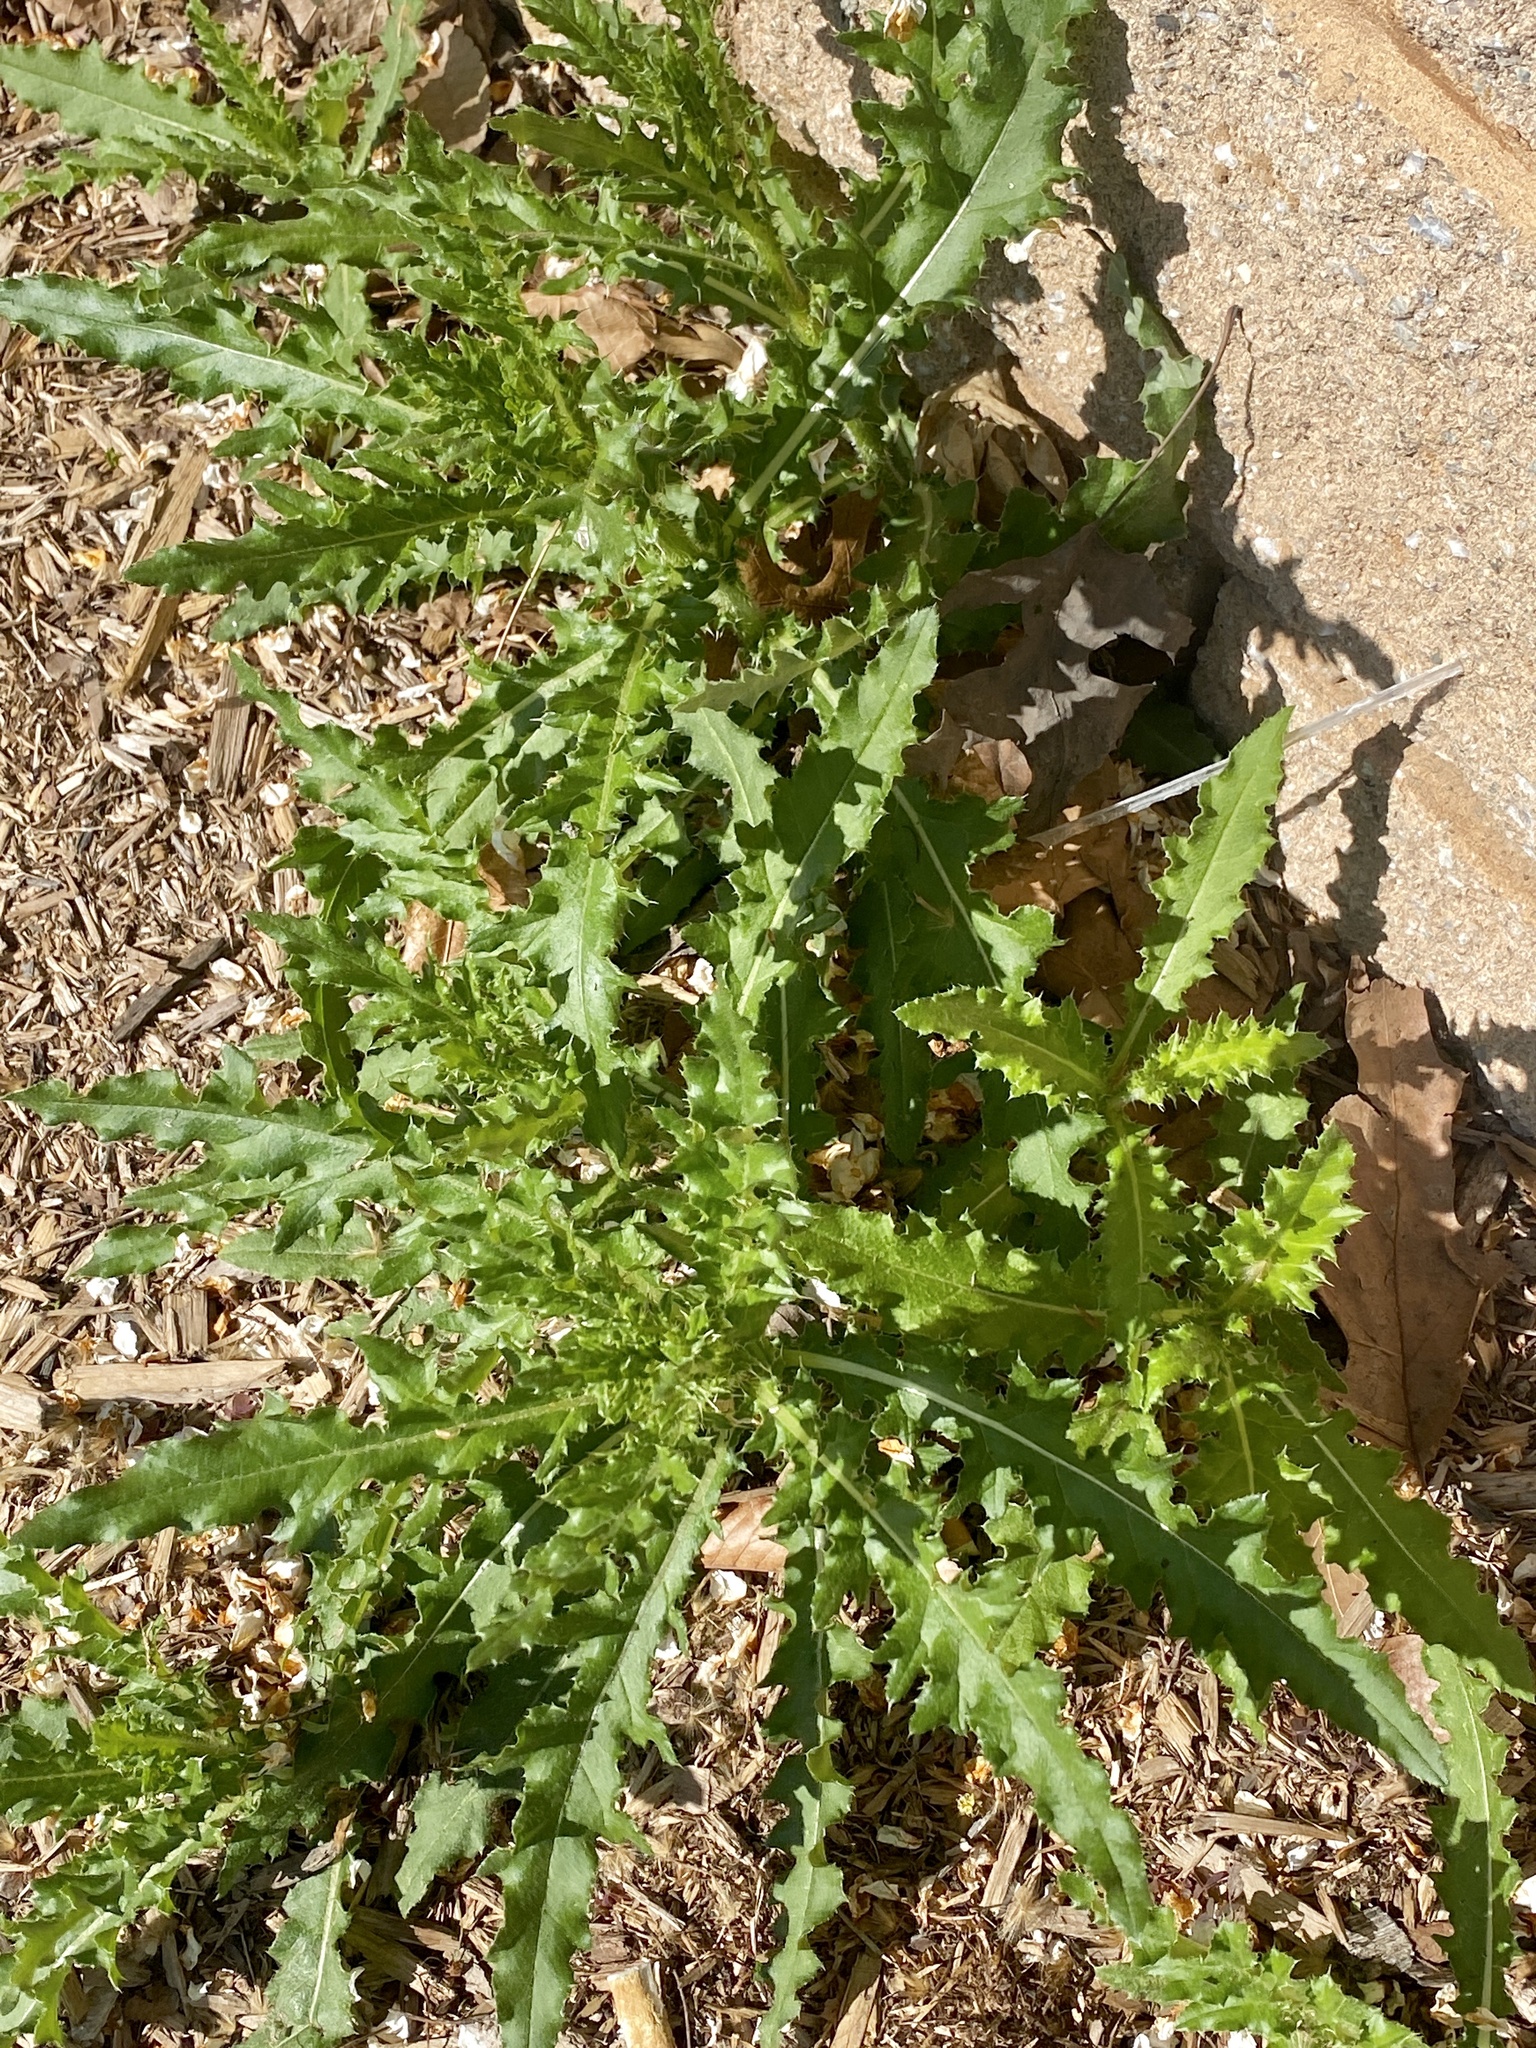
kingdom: Plantae
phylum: Tracheophyta
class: Magnoliopsida
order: Asterales
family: Asteraceae
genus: Cirsium
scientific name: Cirsium arvense
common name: Creeping thistle
